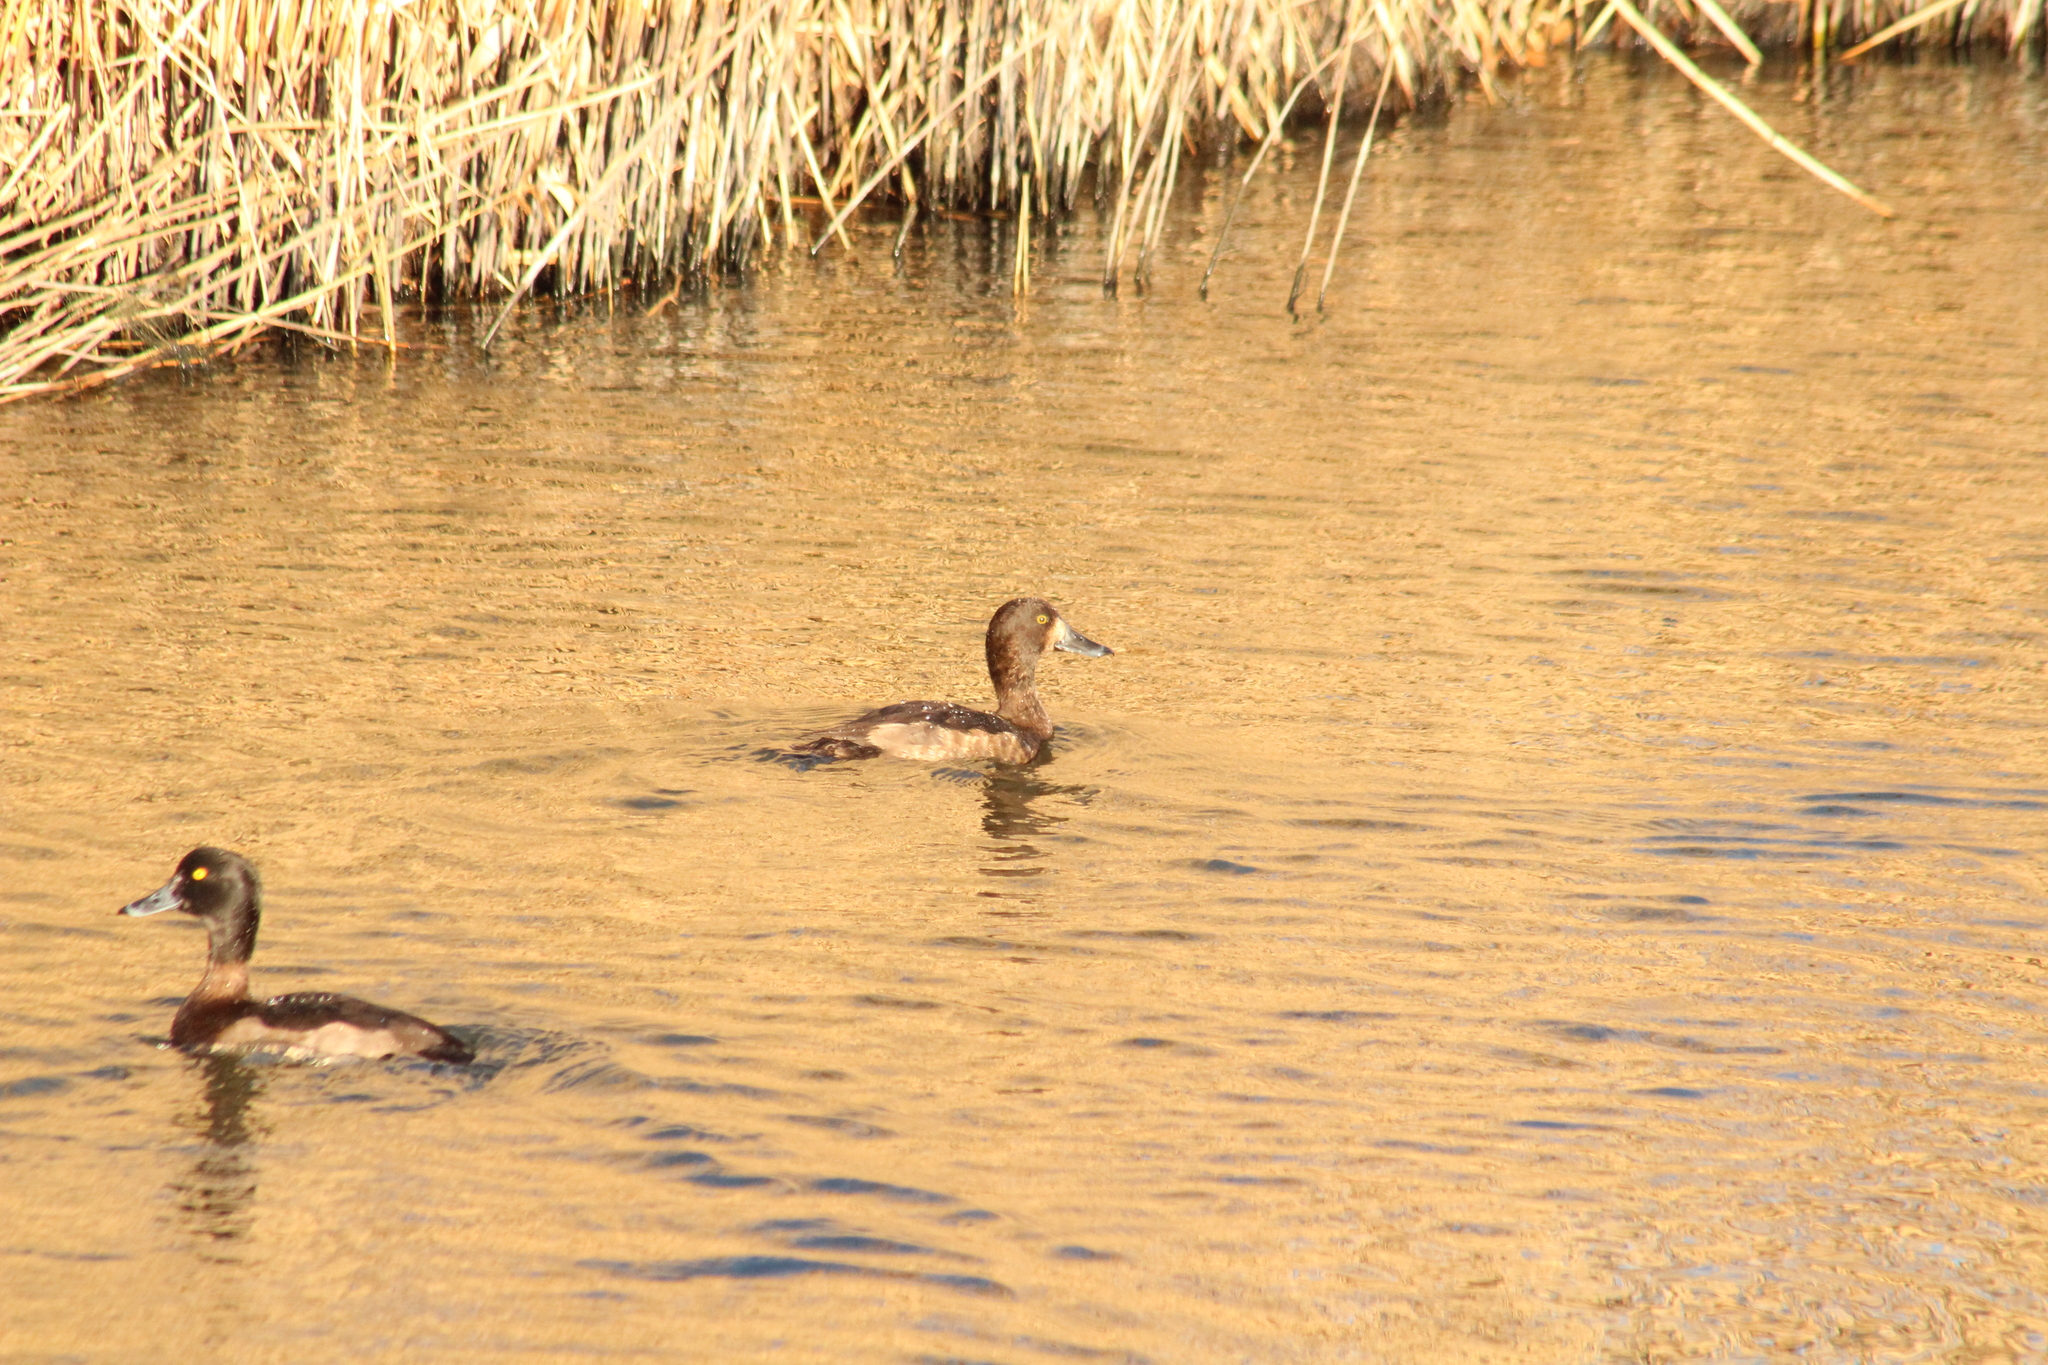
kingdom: Animalia
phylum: Chordata
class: Aves
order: Anseriformes
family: Anatidae
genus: Aythya
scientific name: Aythya fuligula
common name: Tufted duck
